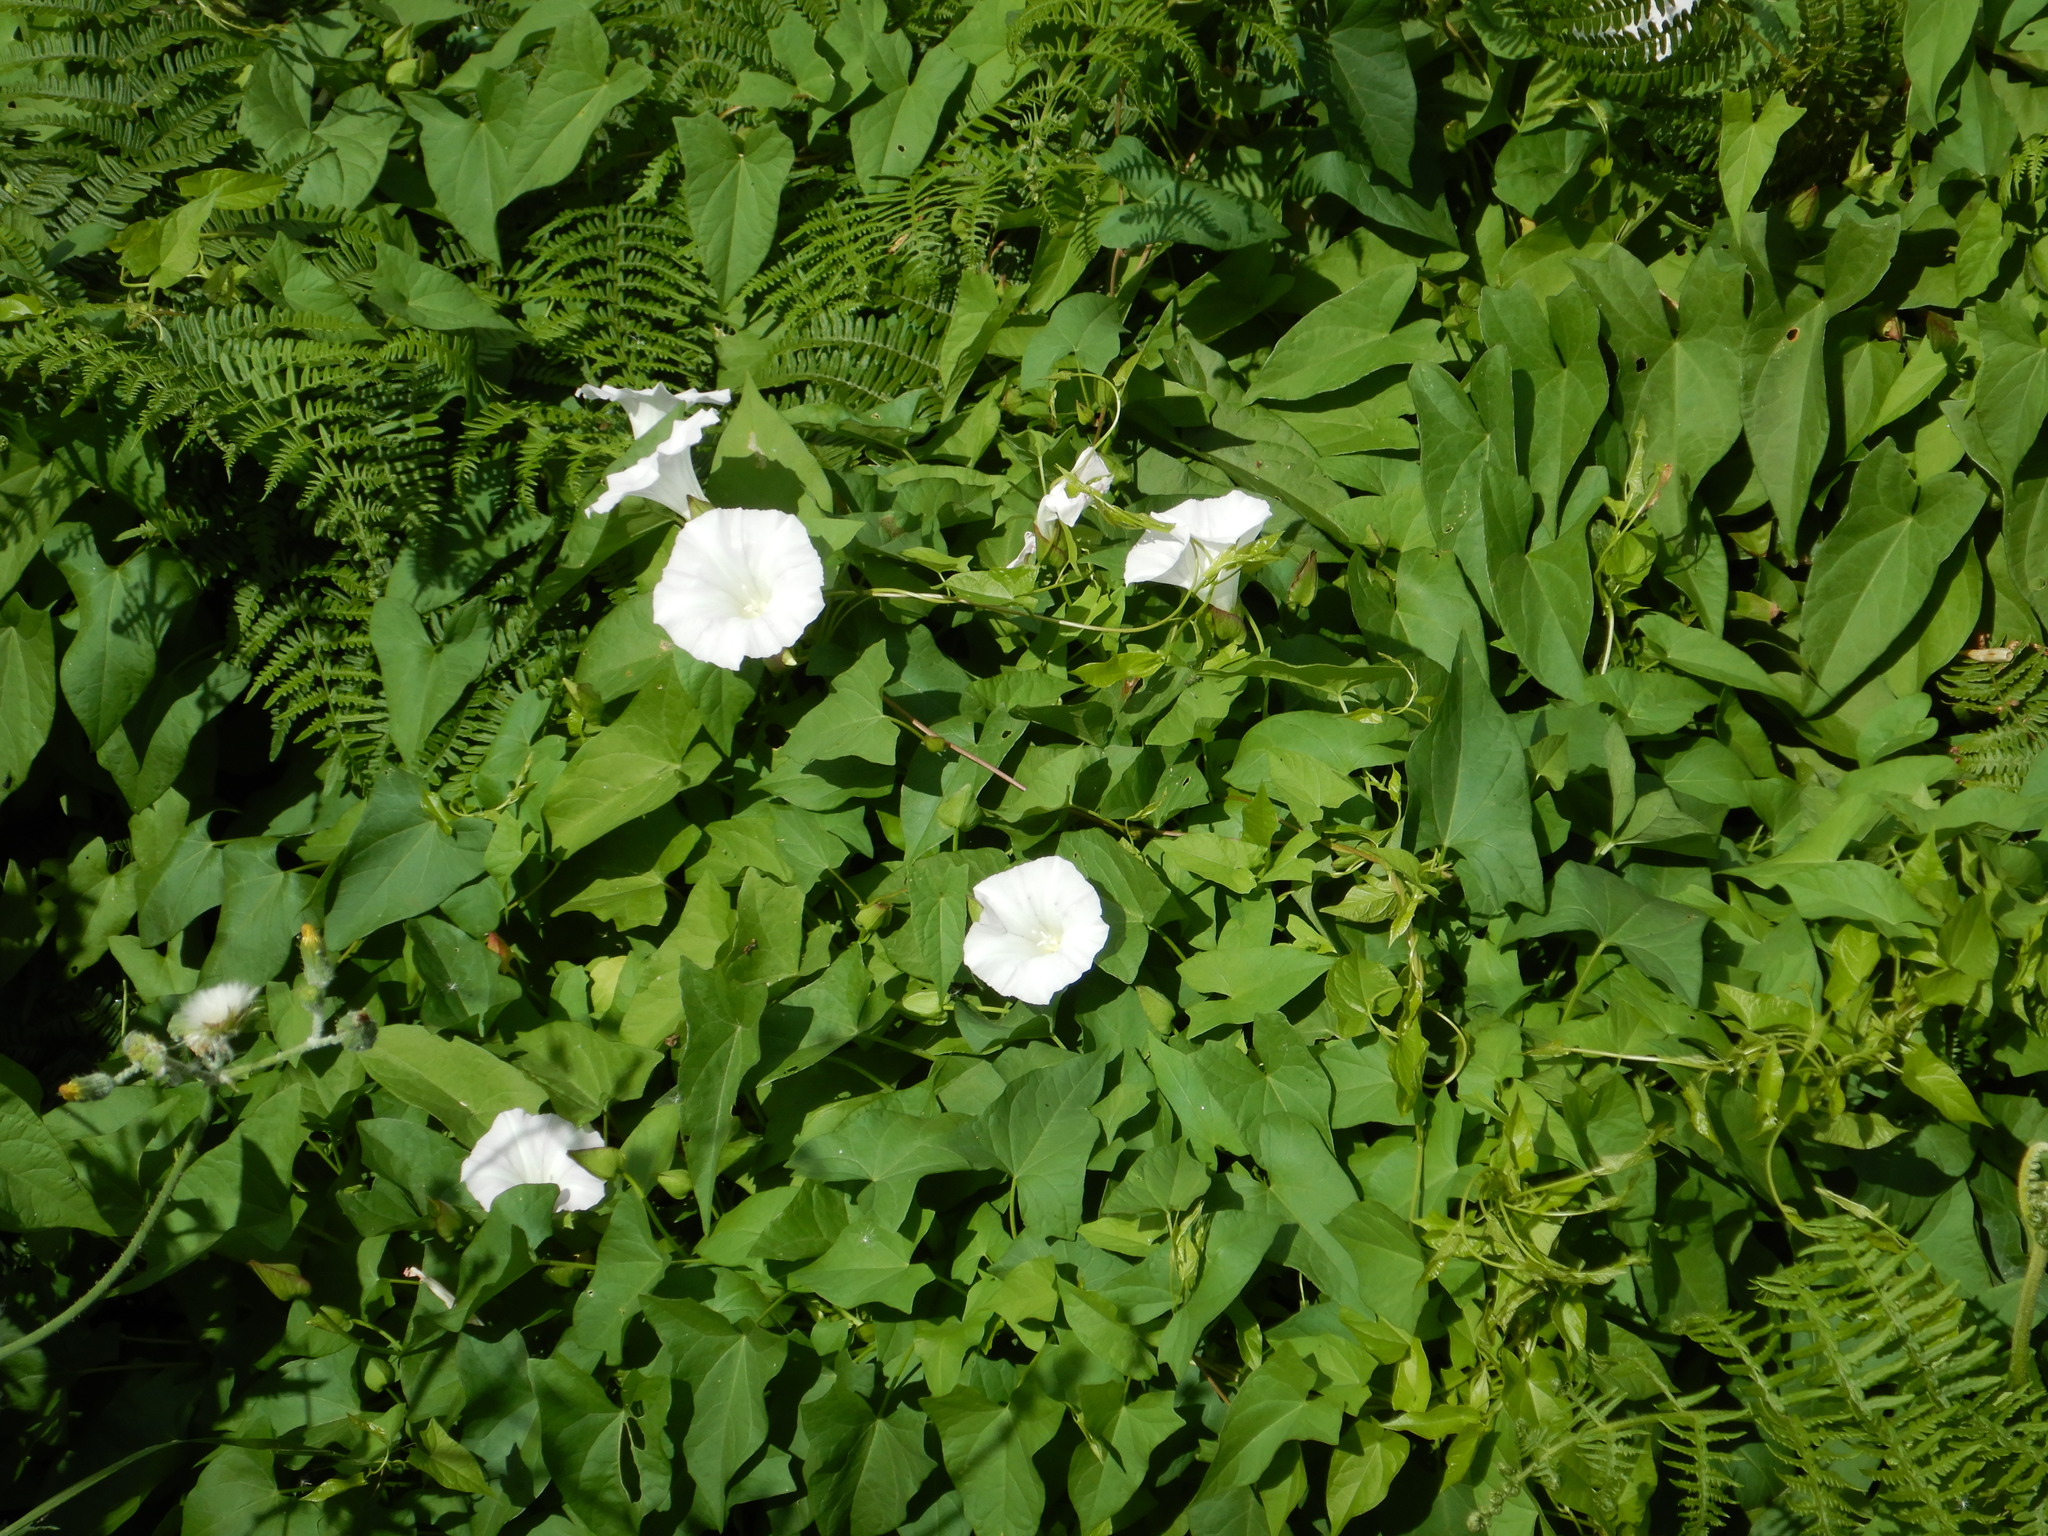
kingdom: Plantae
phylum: Tracheophyta
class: Magnoliopsida
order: Solanales
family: Convolvulaceae
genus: Calystegia
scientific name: Calystegia sepium
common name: Hedge bindweed
